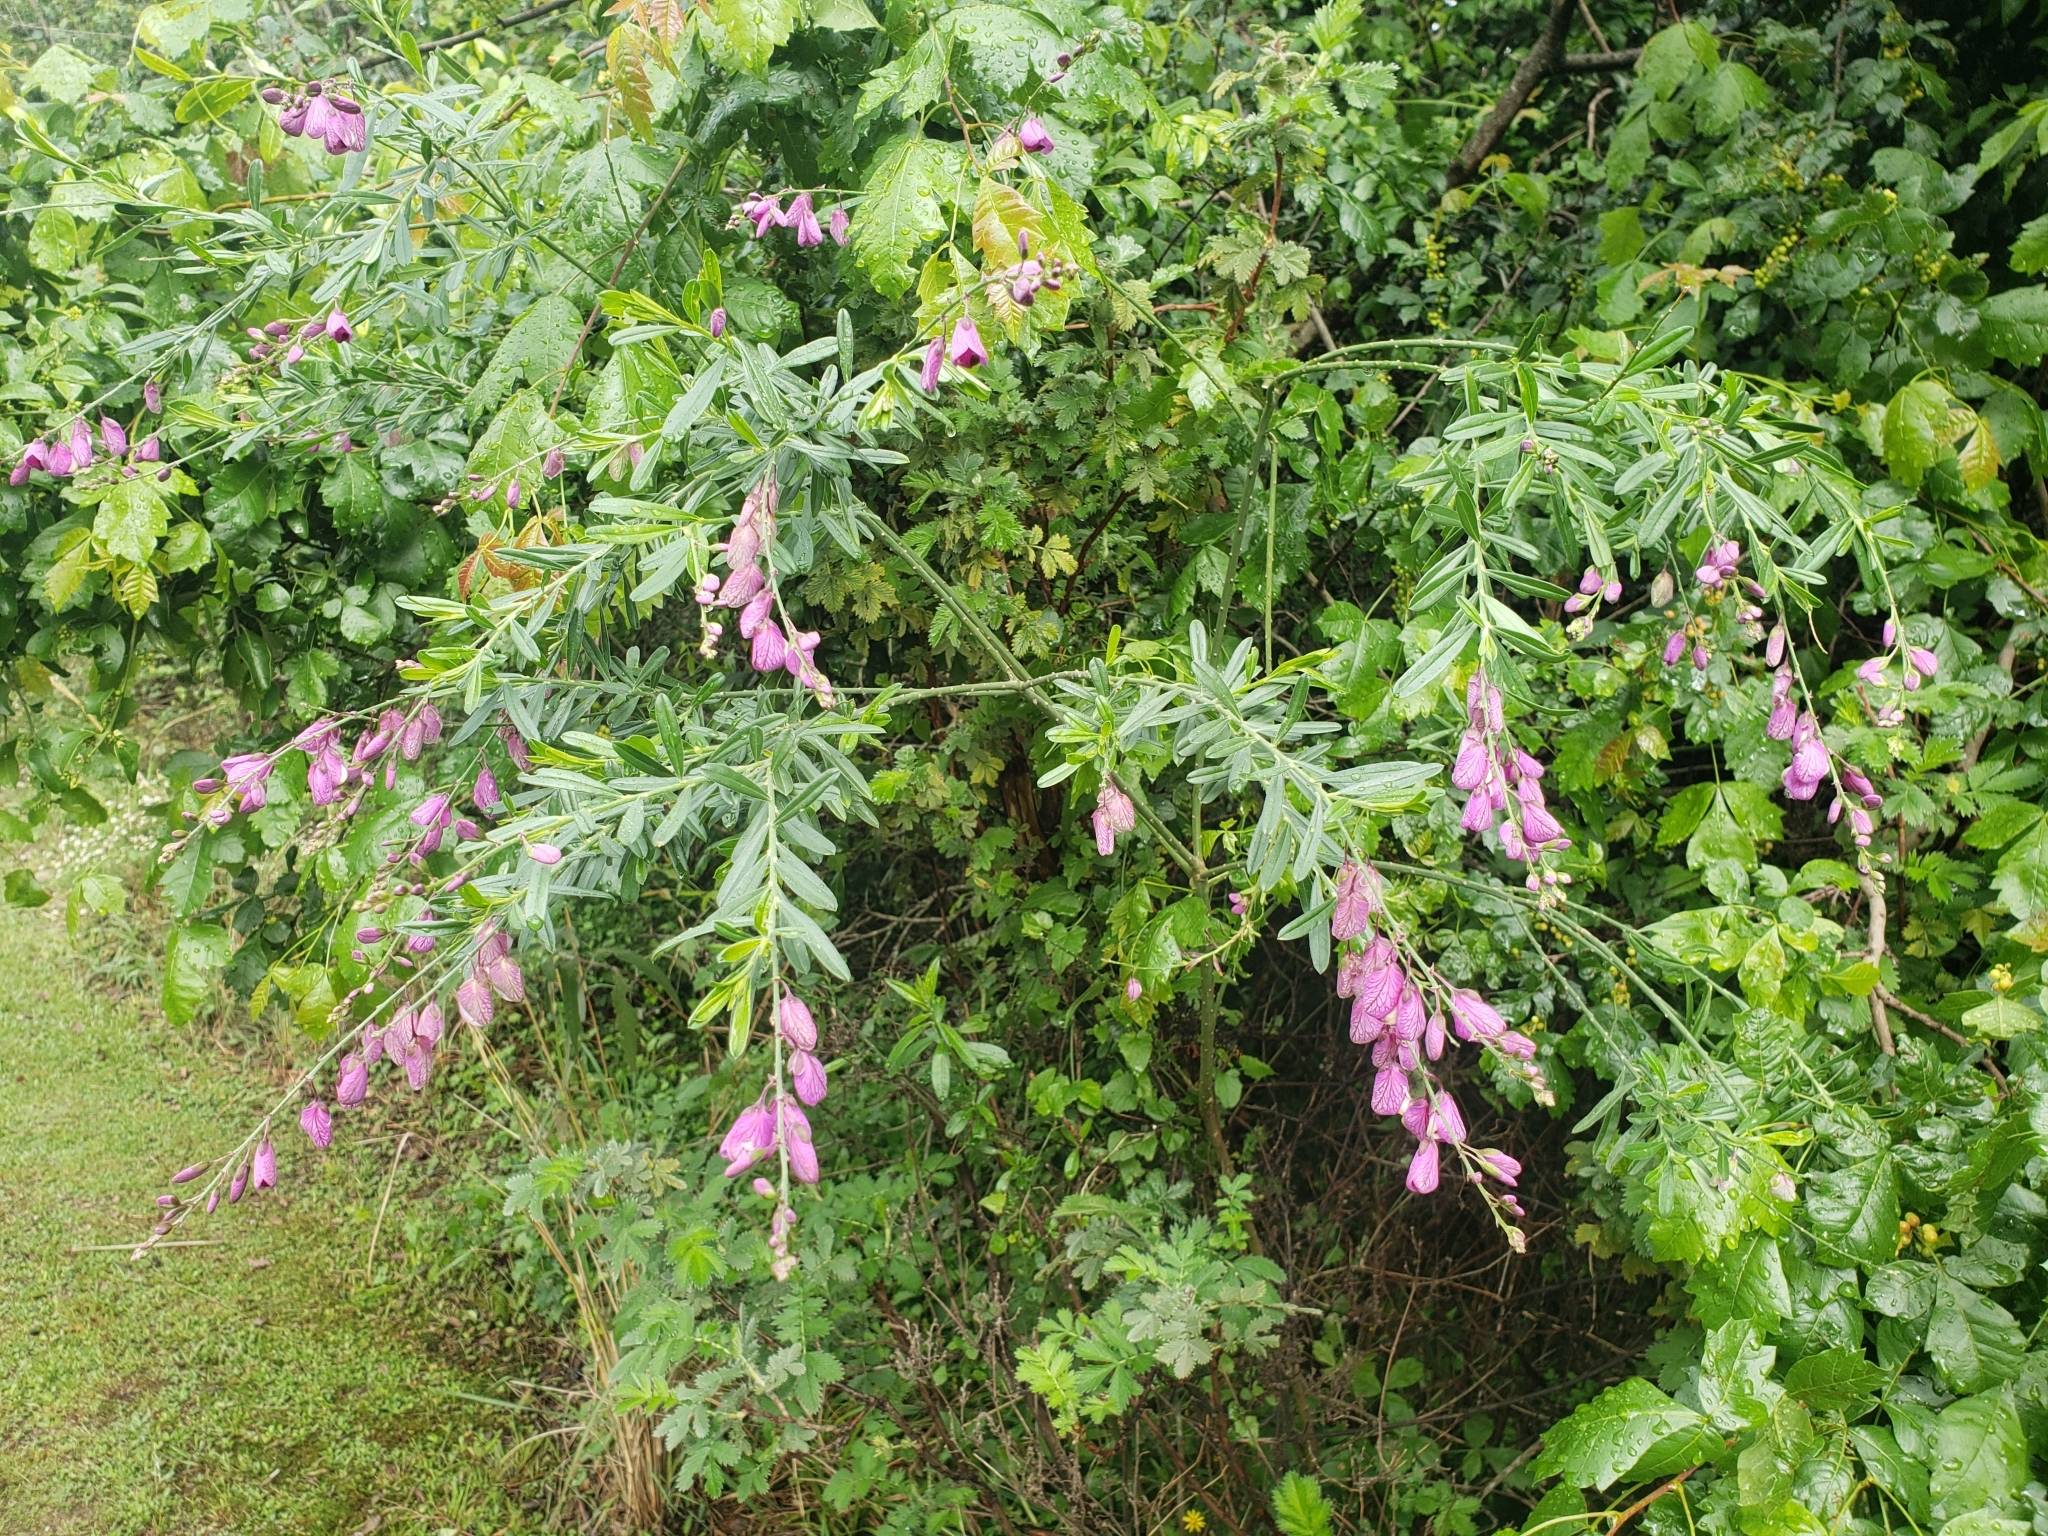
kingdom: Plantae
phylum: Tracheophyta
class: Magnoliopsida
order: Fabales
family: Polygalaceae
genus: Polygala
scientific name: Polygala virgata
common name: Milkwort
